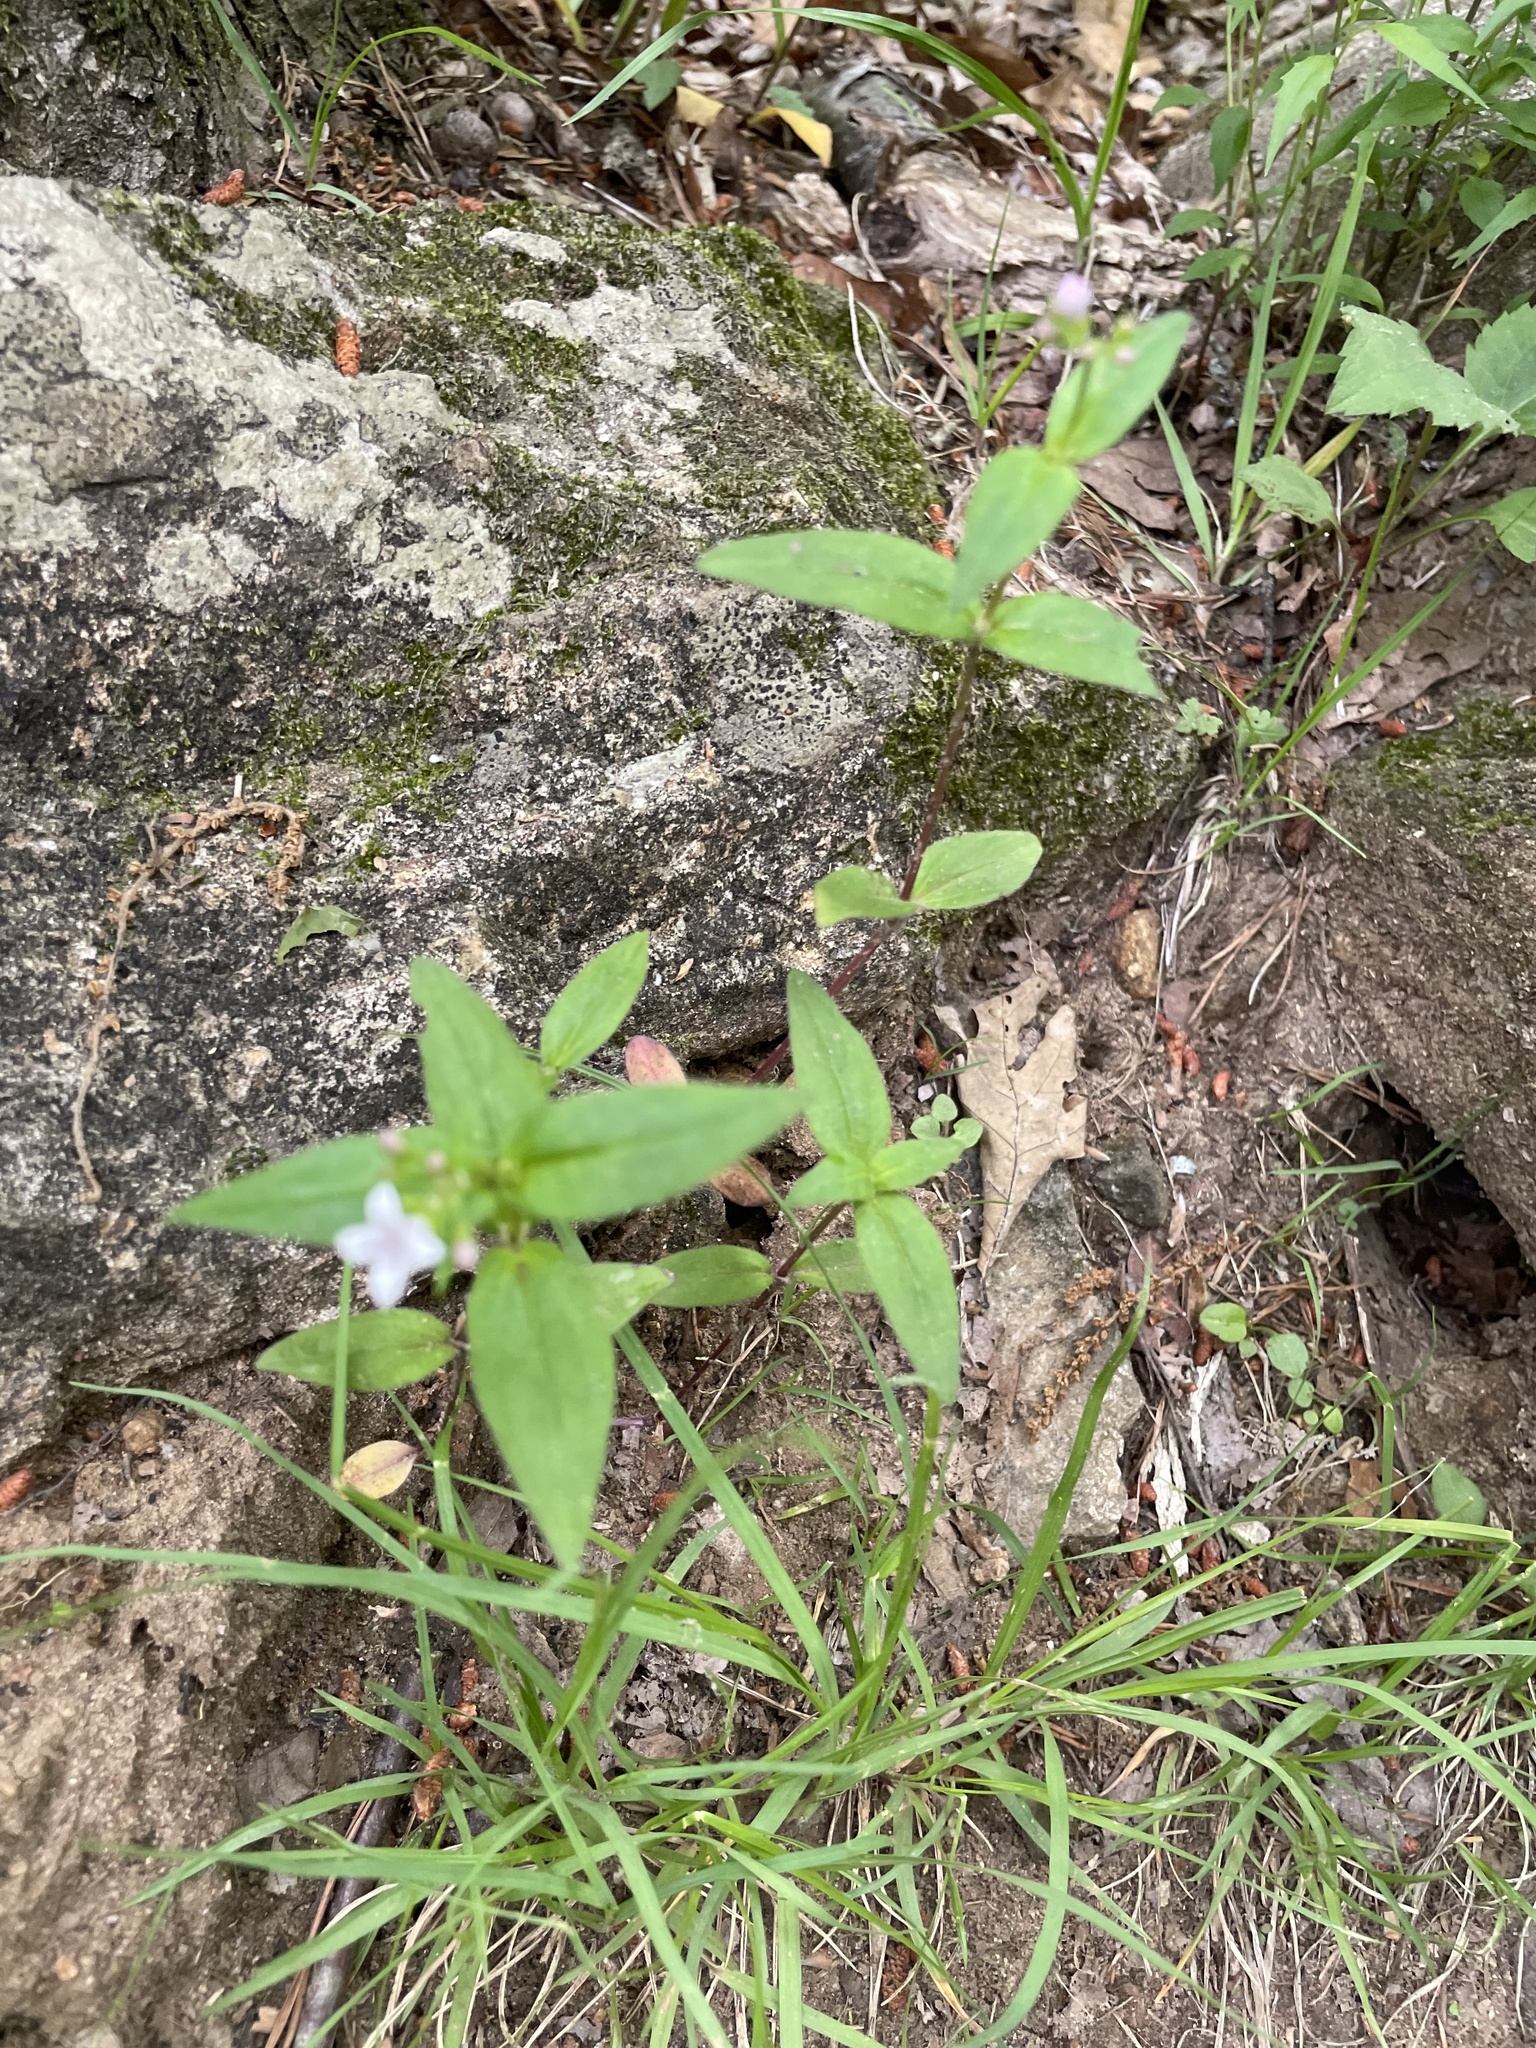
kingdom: Plantae
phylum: Tracheophyta
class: Magnoliopsida
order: Gentianales
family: Rubiaceae
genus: Houstonia
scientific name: Houstonia purpurea
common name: Summer bluet
